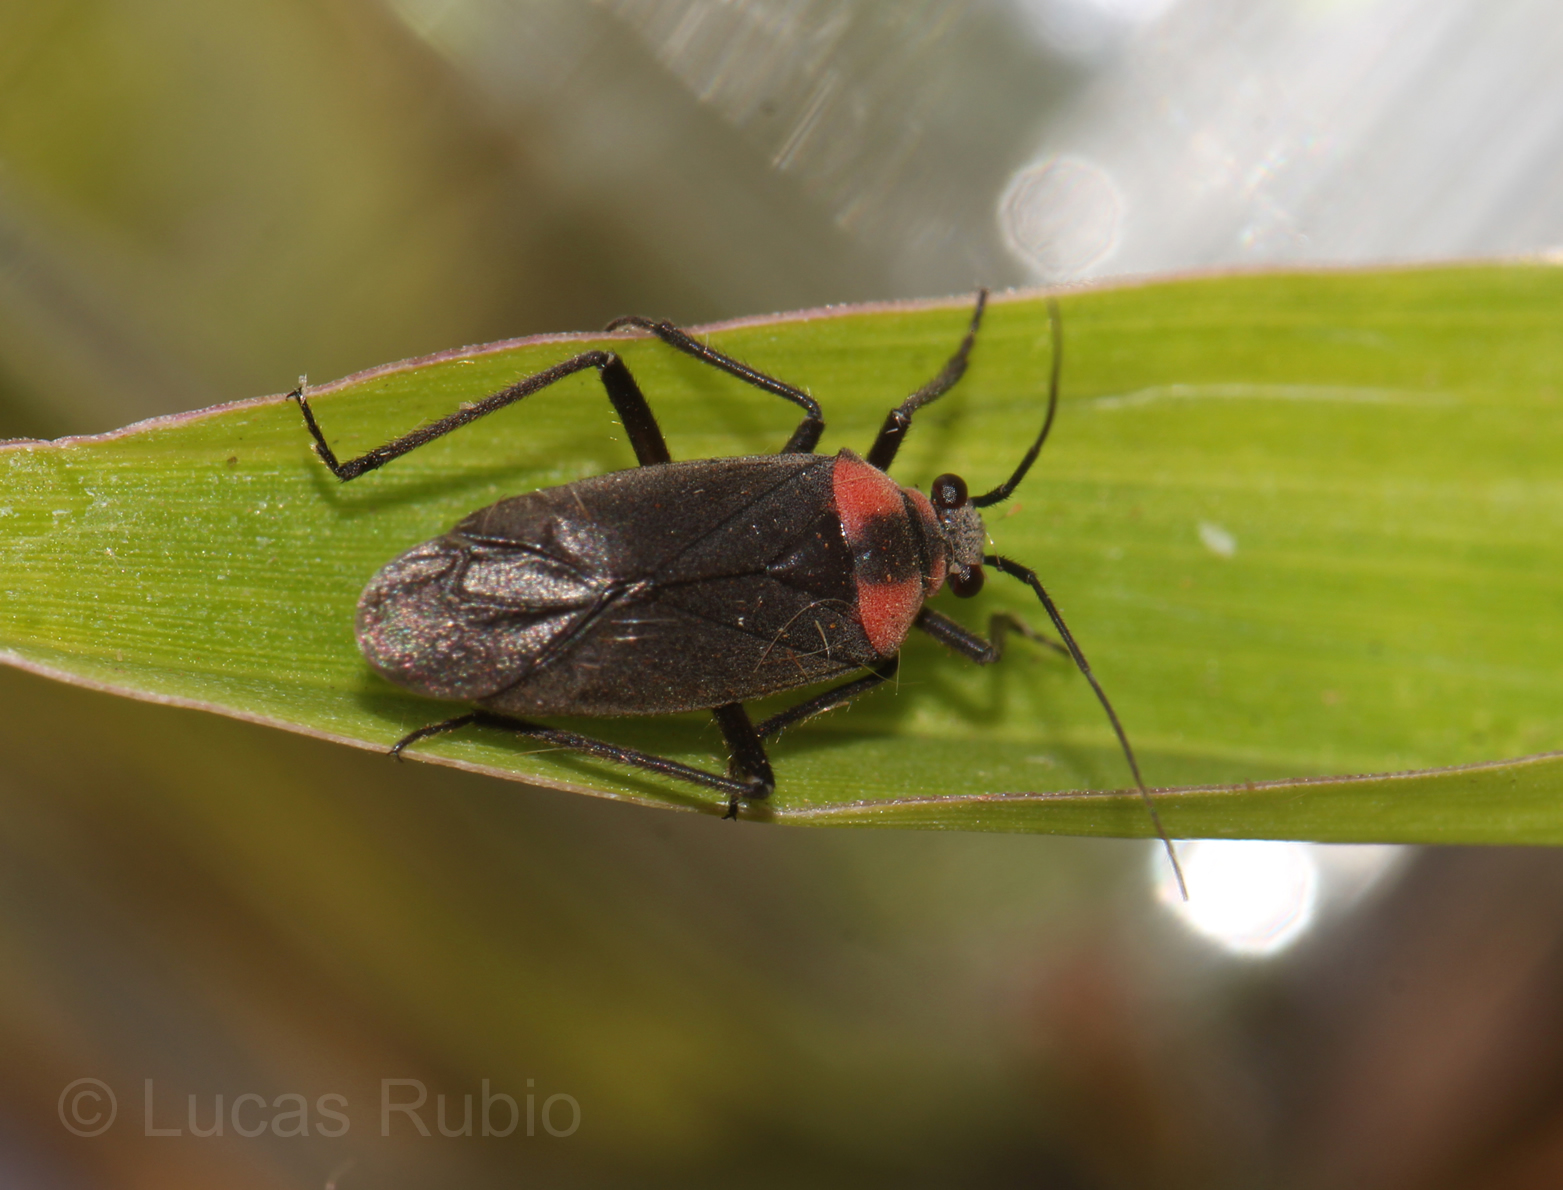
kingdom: Animalia
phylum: Arthropoda
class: Insecta
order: Hemiptera
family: Miridae
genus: Prepops
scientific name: Prepops procorrentinus
